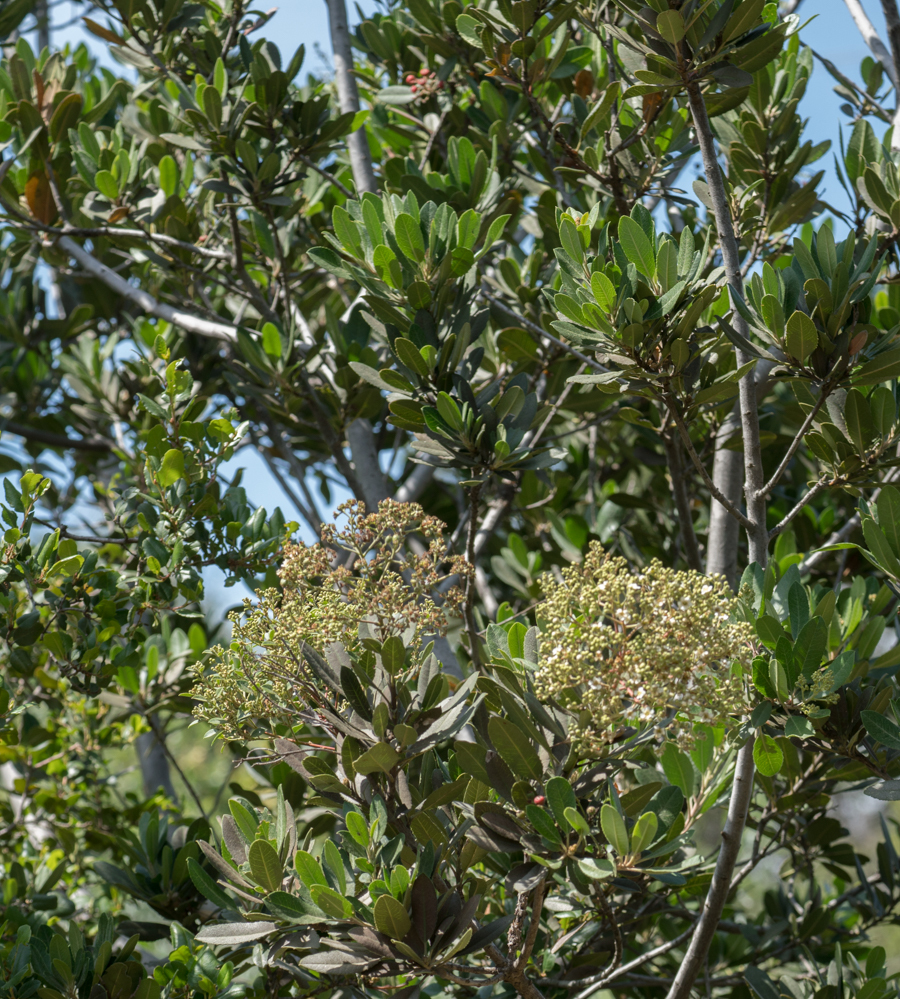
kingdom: Plantae
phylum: Tracheophyta
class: Magnoliopsida
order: Rosales
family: Rosaceae
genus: Heteromeles
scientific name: Heteromeles arbutifolia
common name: California-holly
